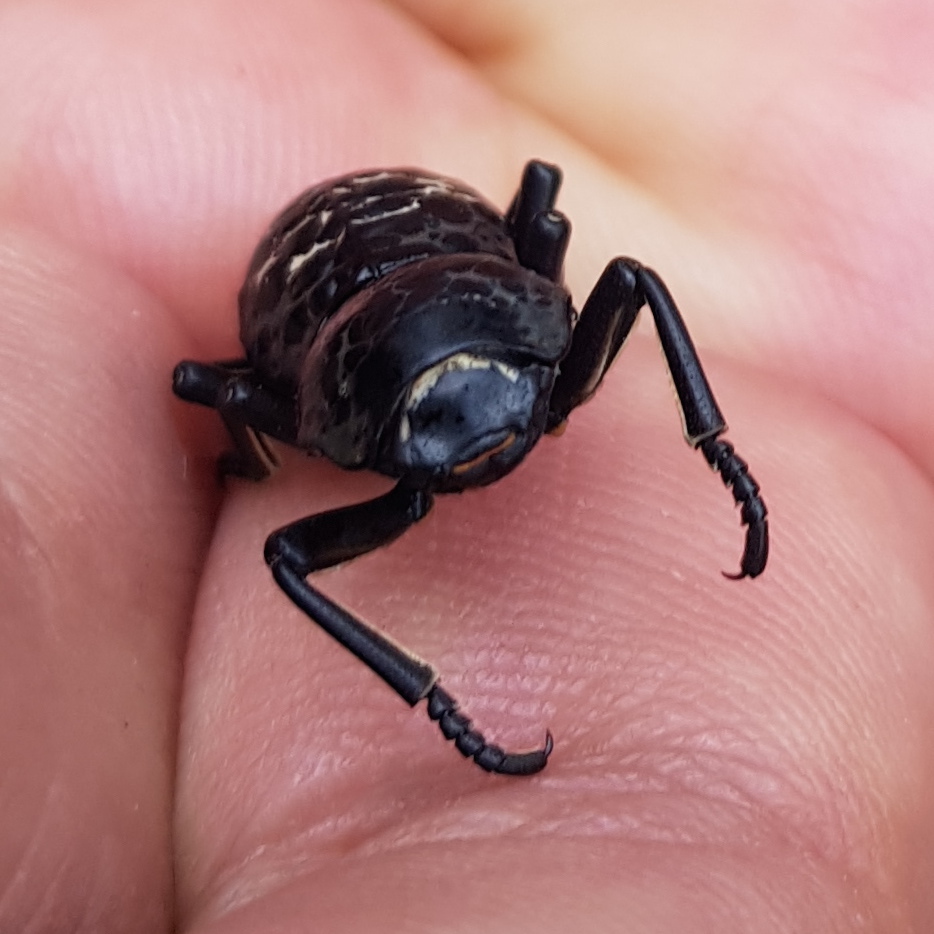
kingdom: Animalia
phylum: Arthropoda
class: Insecta
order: Coleoptera
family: Zopheridae
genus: Zopherus
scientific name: Zopherus nodulosus
